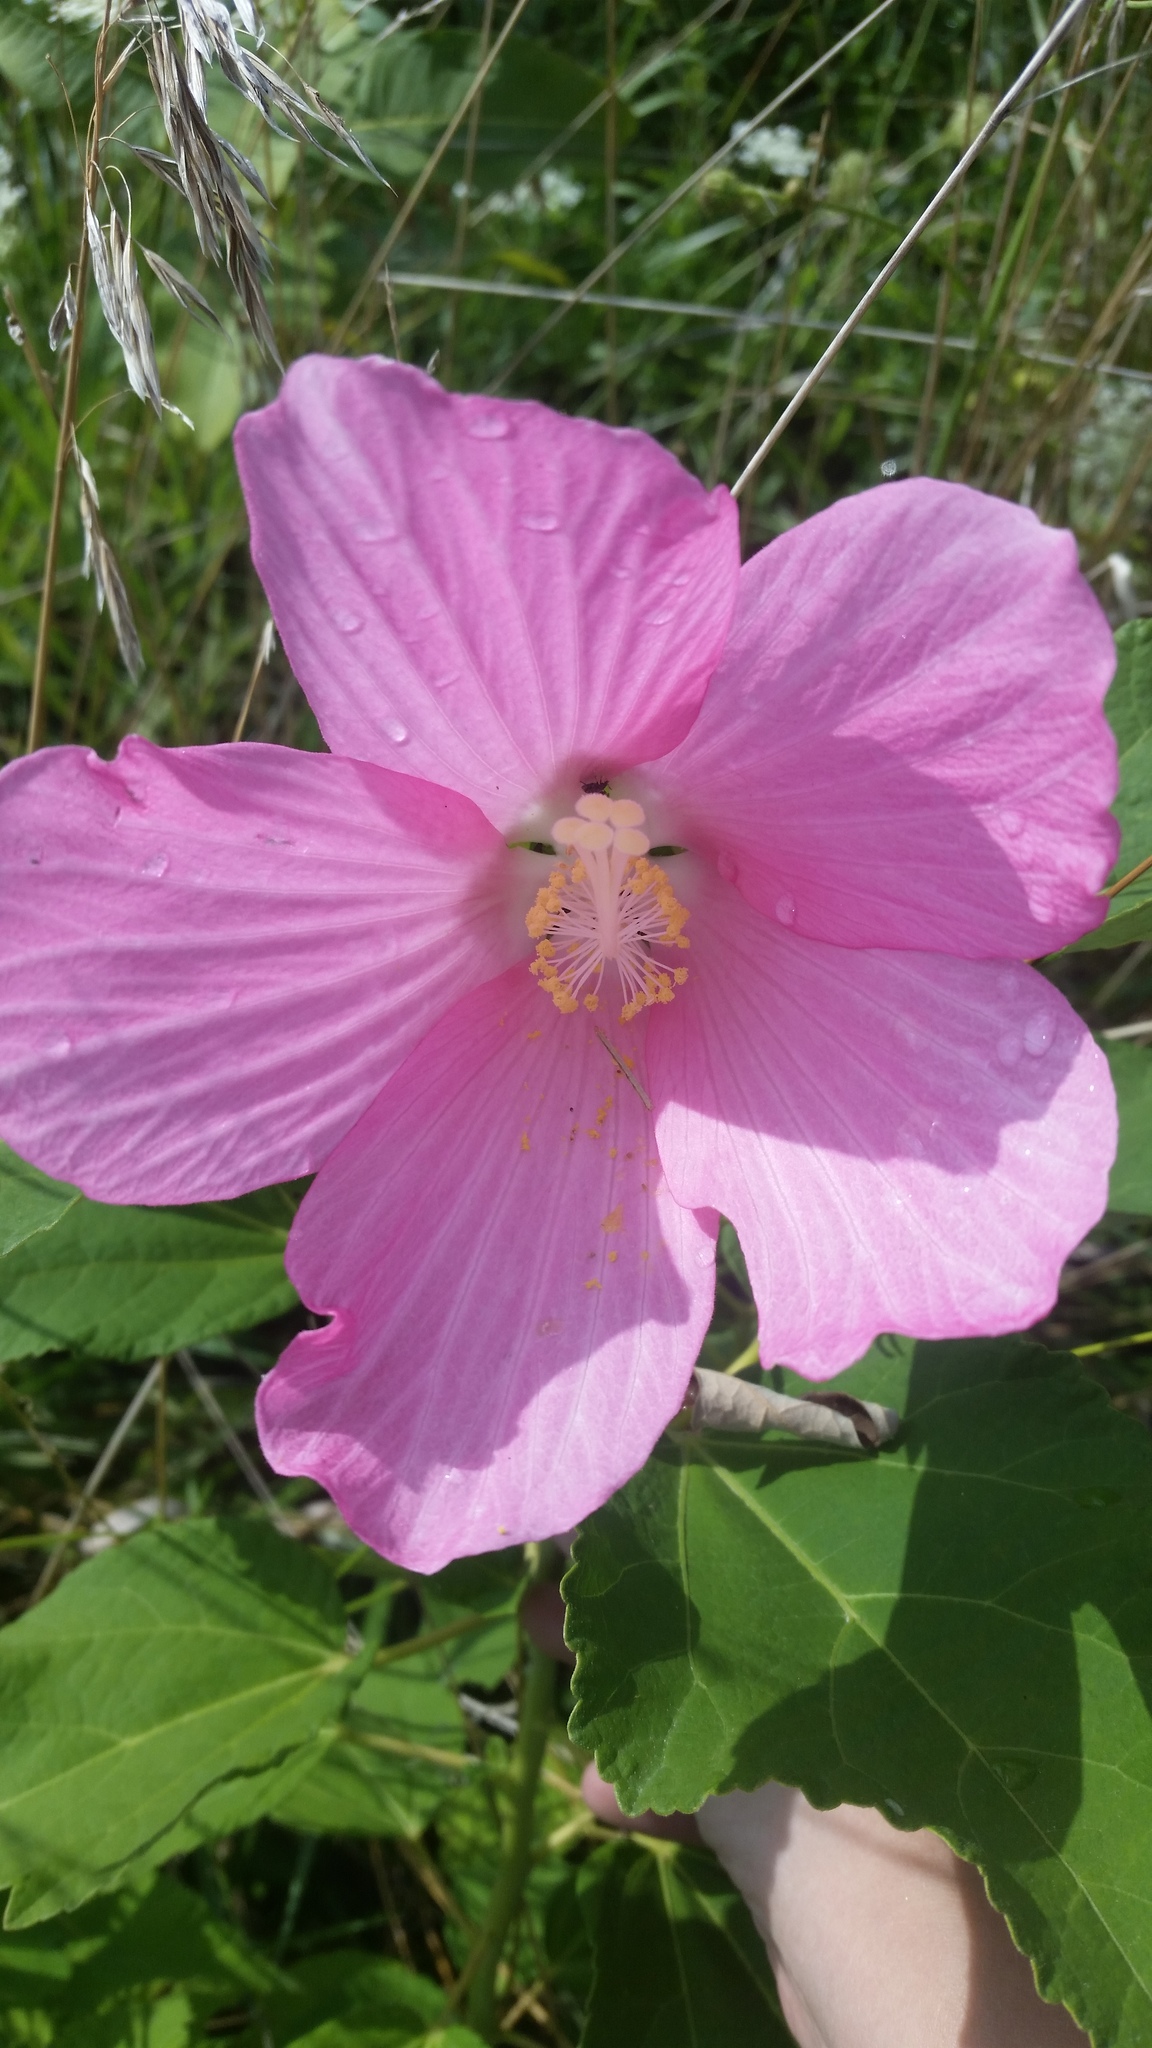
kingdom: Plantae
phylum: Tracheophyta
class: Magnoliopsida
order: Malvales
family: Malvaceae
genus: Hibiscus
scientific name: Hibiscus moscheutos
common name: Common rose-mallow
